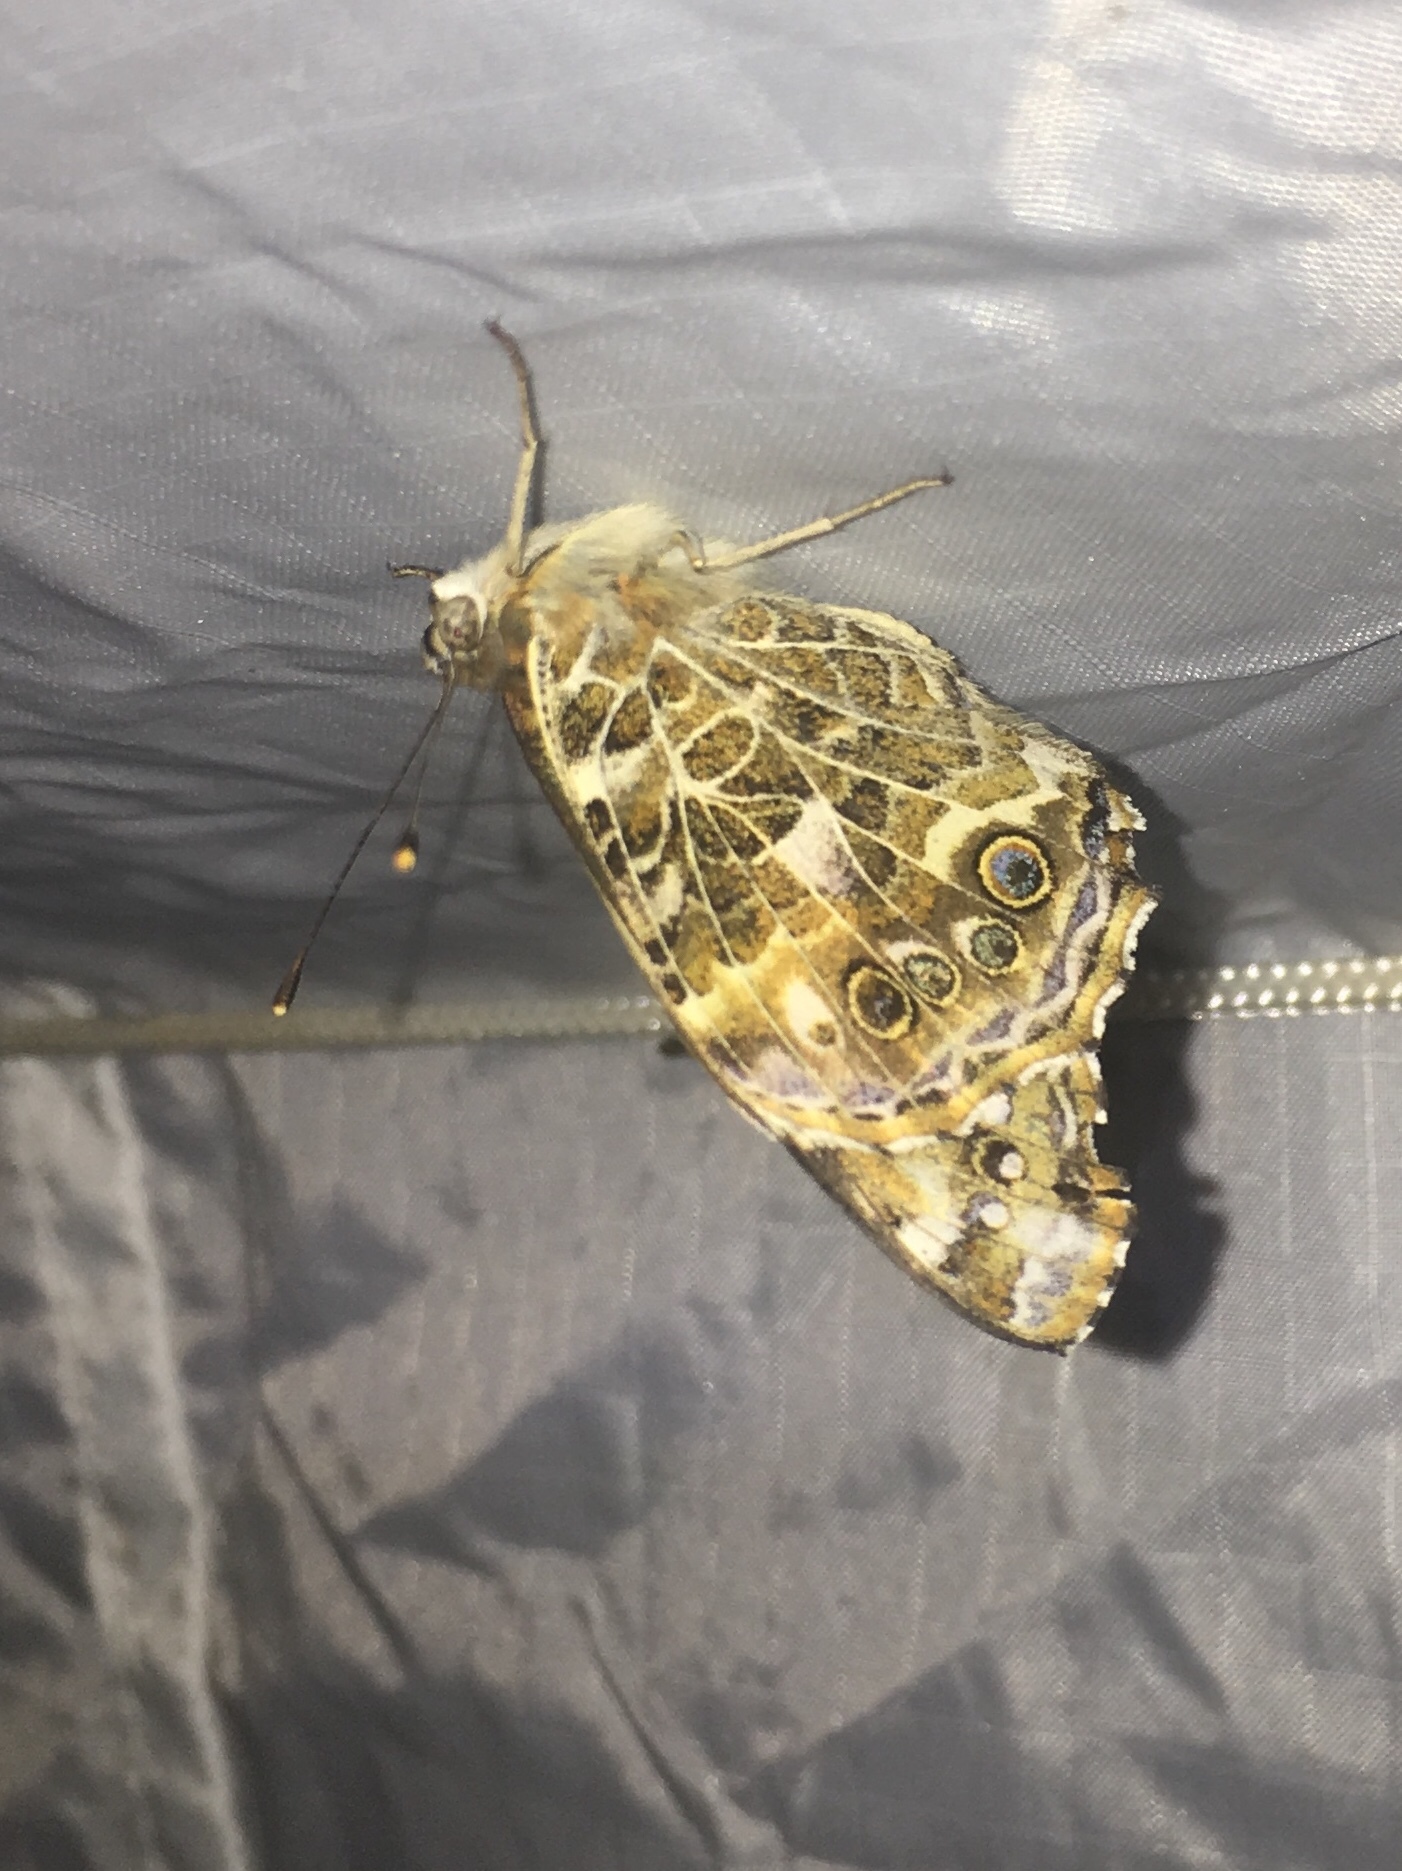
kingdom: Animalia
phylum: Arthropoda
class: Insecta
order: Lepidoptera
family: Nymphalidae
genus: Vanessa
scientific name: Vanessa cardui
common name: Painted lady
